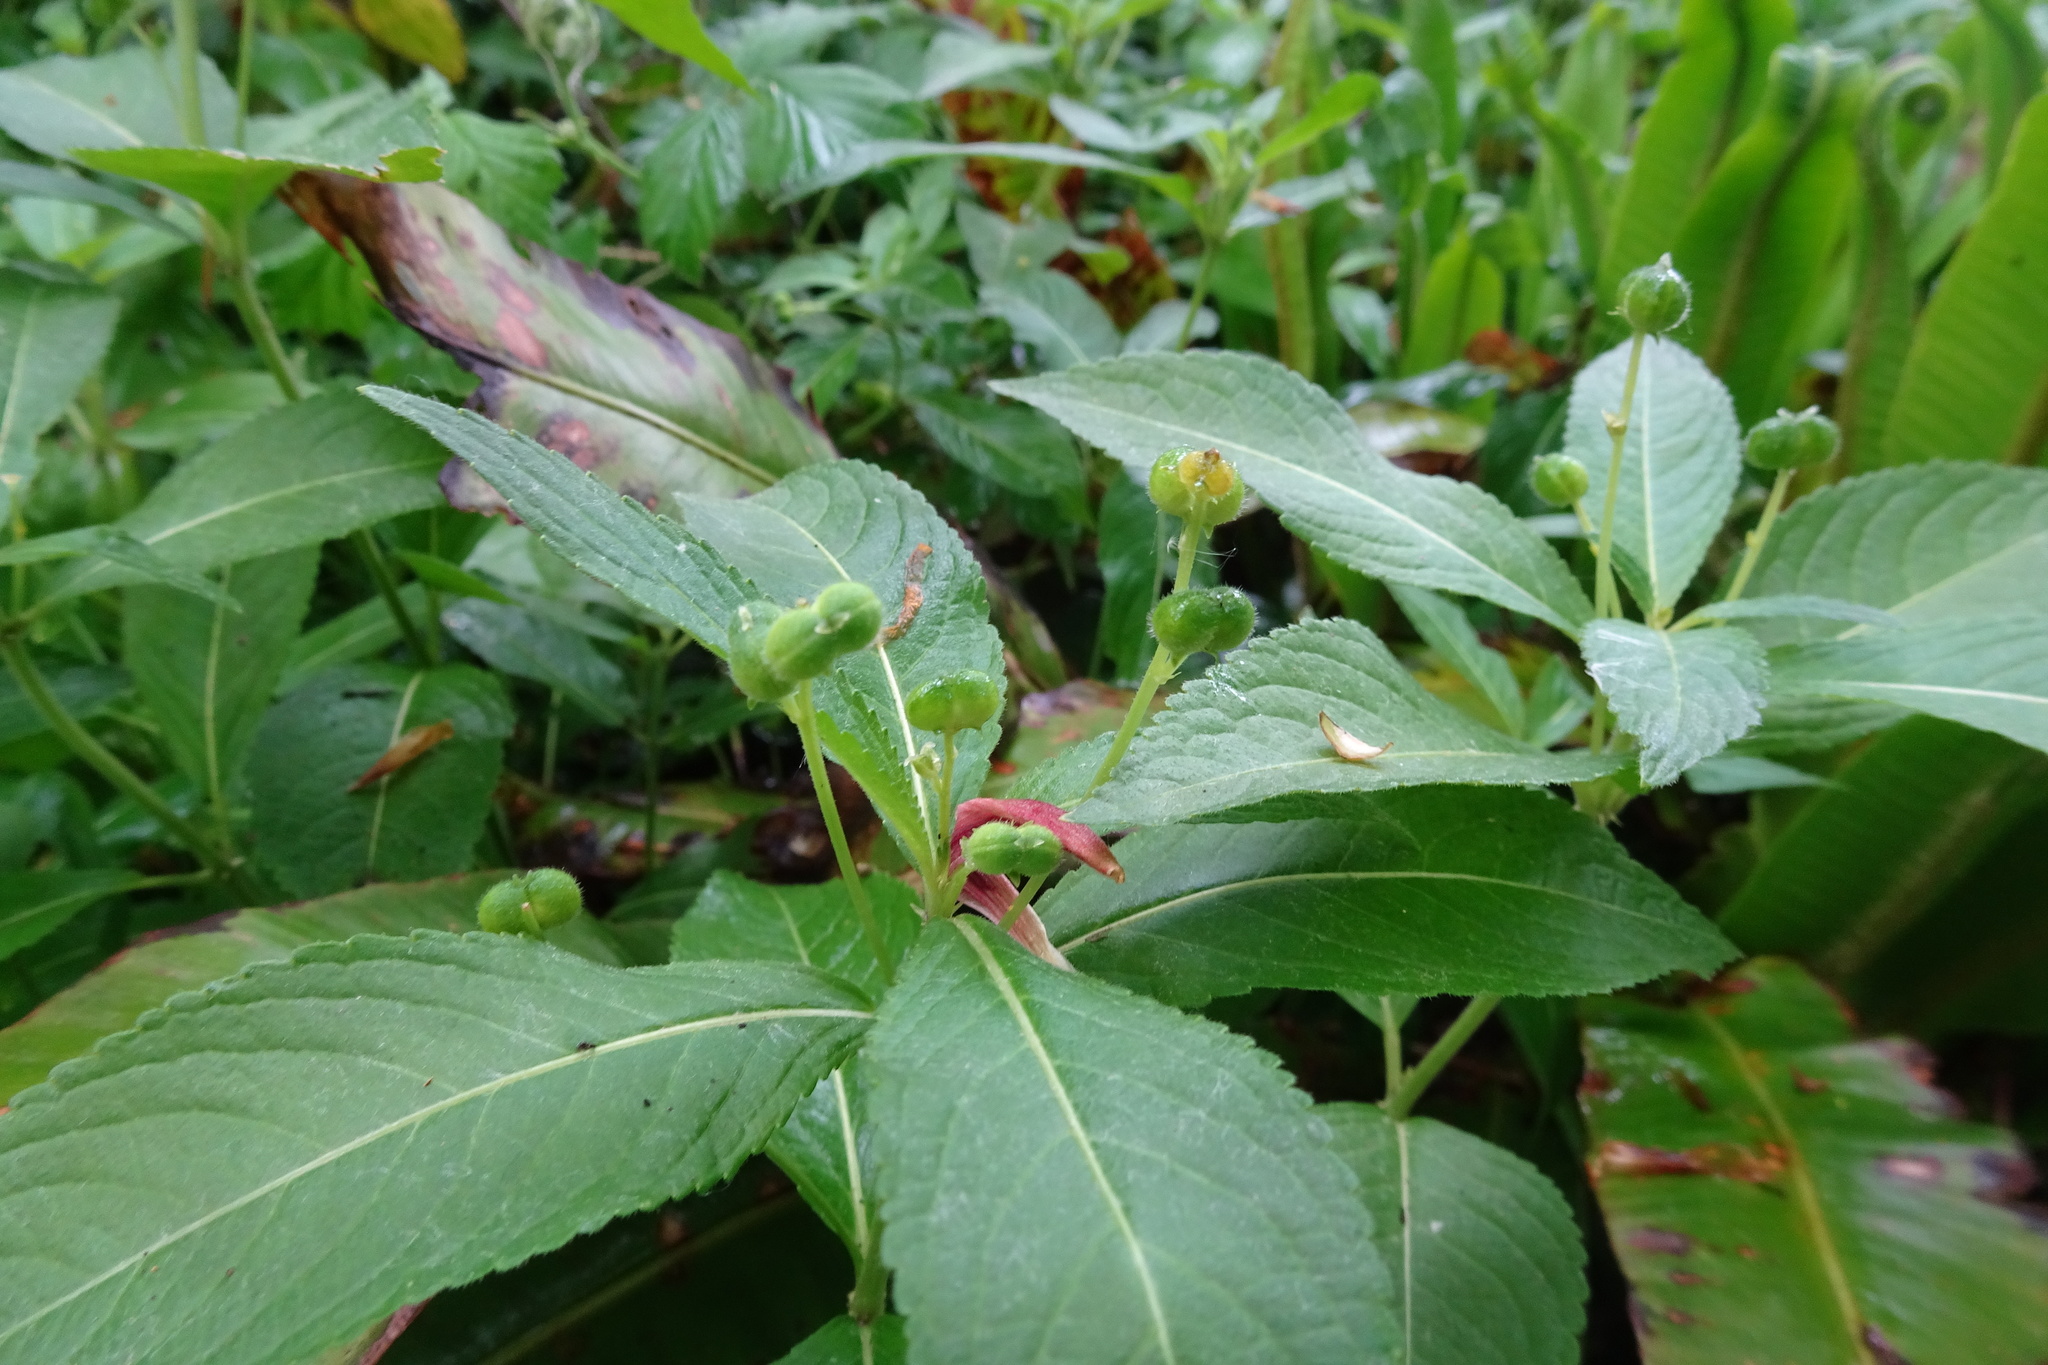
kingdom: Plantae
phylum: Tracheophyta
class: Magnoliopsida
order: Malpighiales
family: Euphorbiaceae
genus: Mercurialis
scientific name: Mercurialis perennis
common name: Dog mercury
